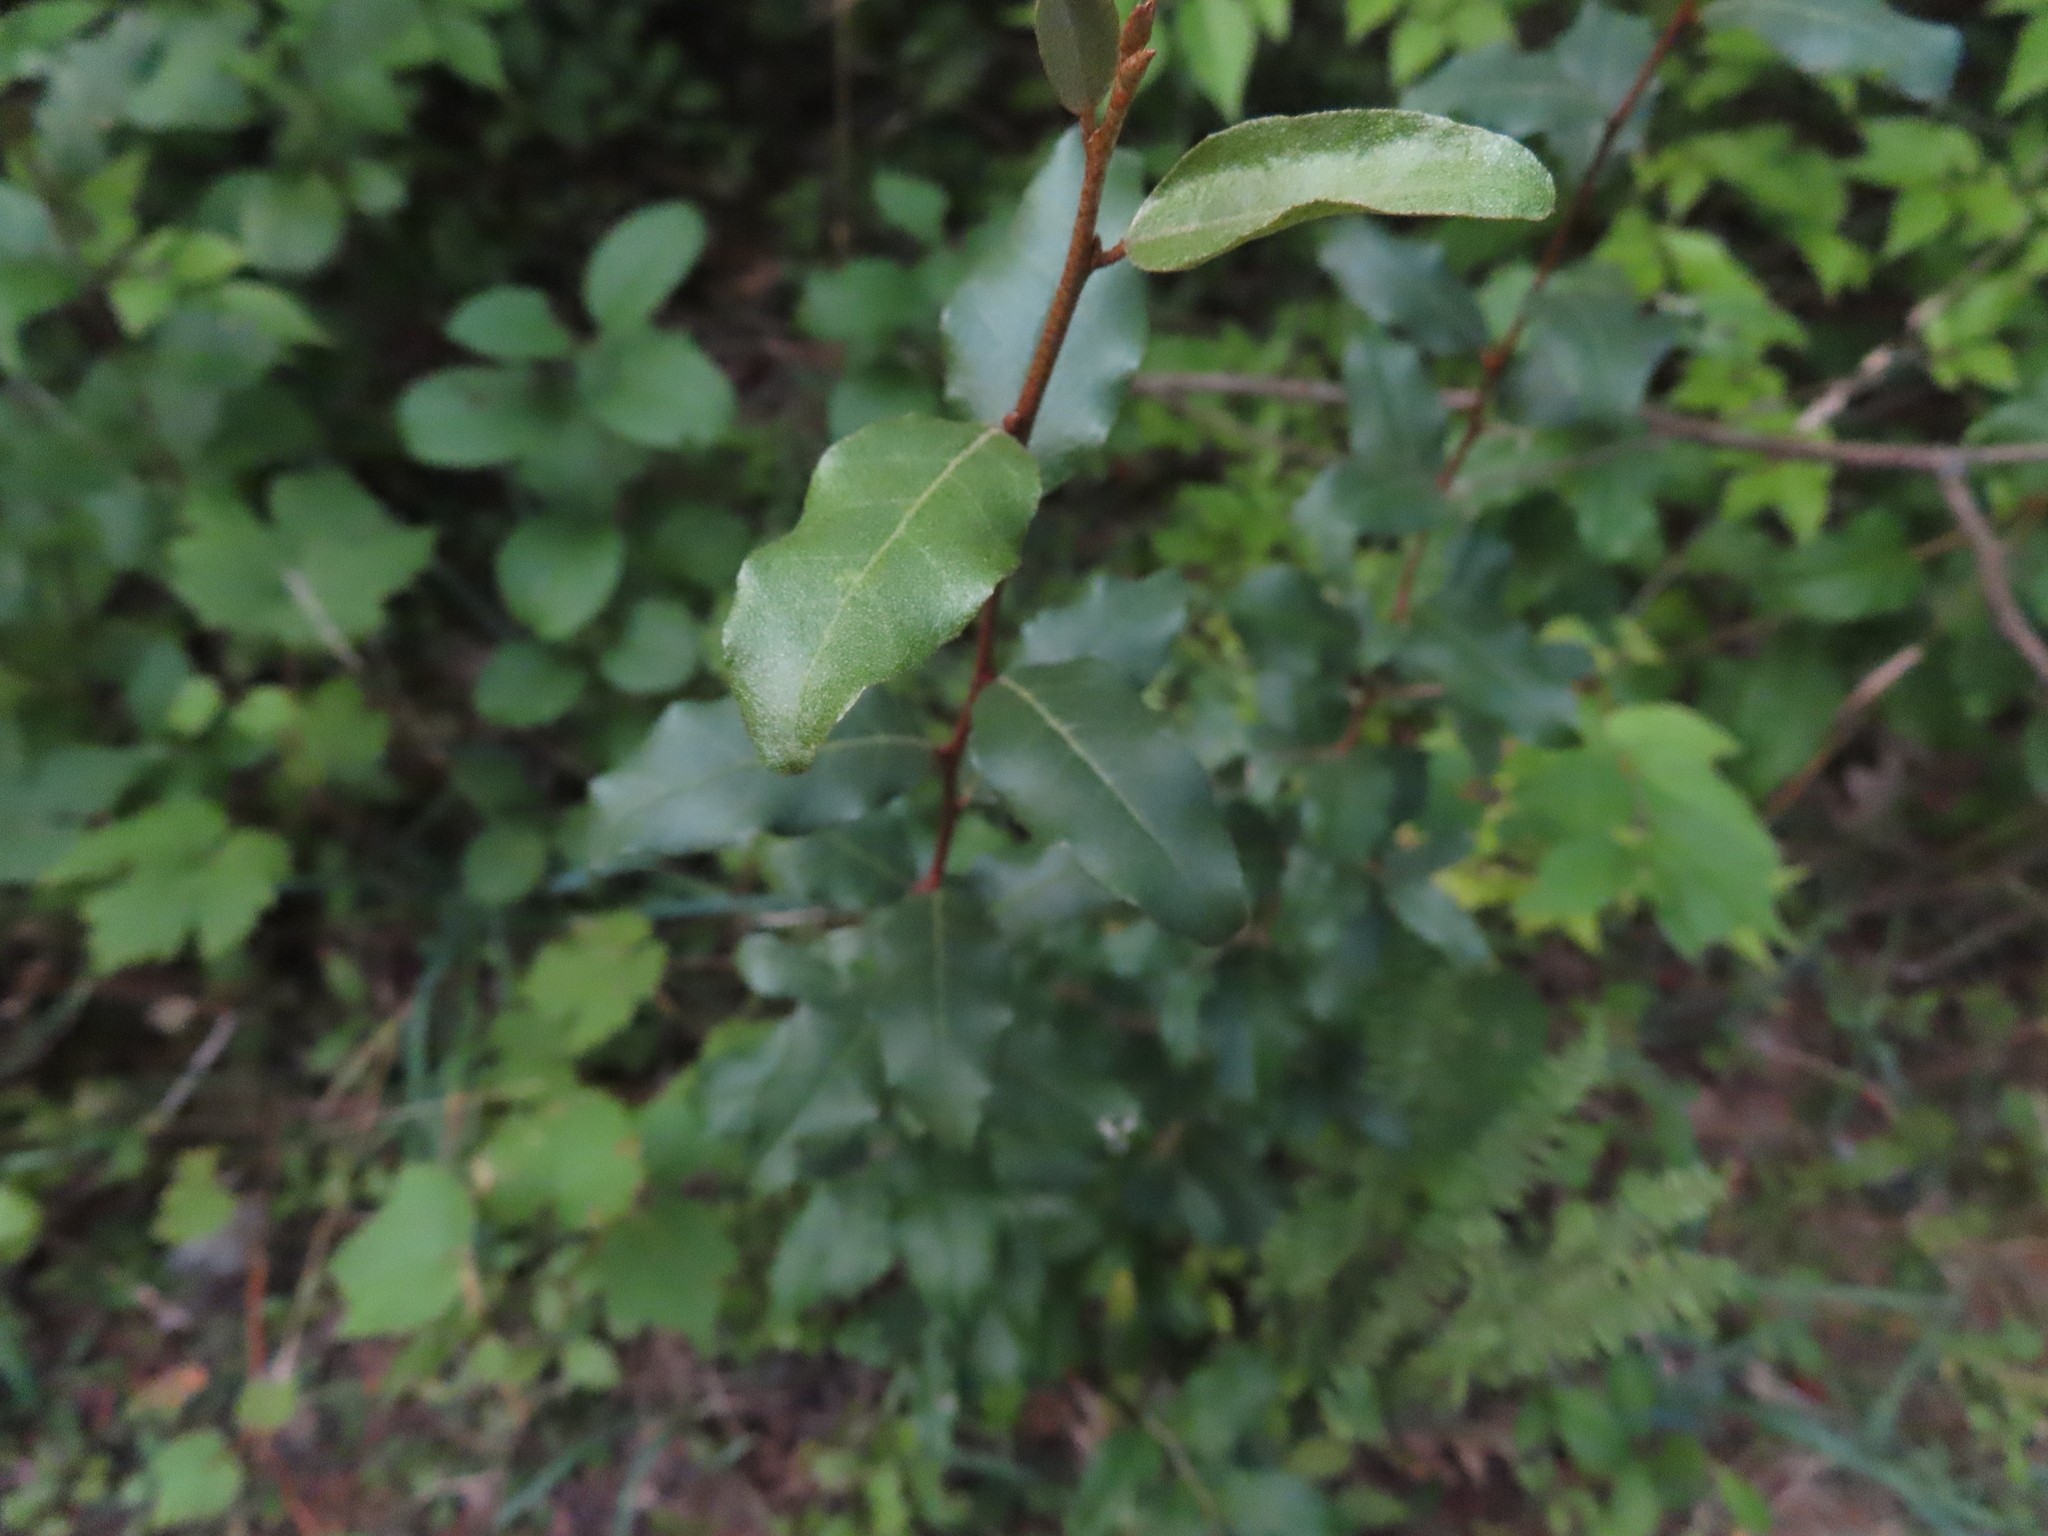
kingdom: Plantae
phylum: Tracheophyta
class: Magnoliopsida
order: Rosales
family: Elaeagnaceae
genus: Elaeagnus
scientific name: Elaeagnus umbellata
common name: Autumn olive
